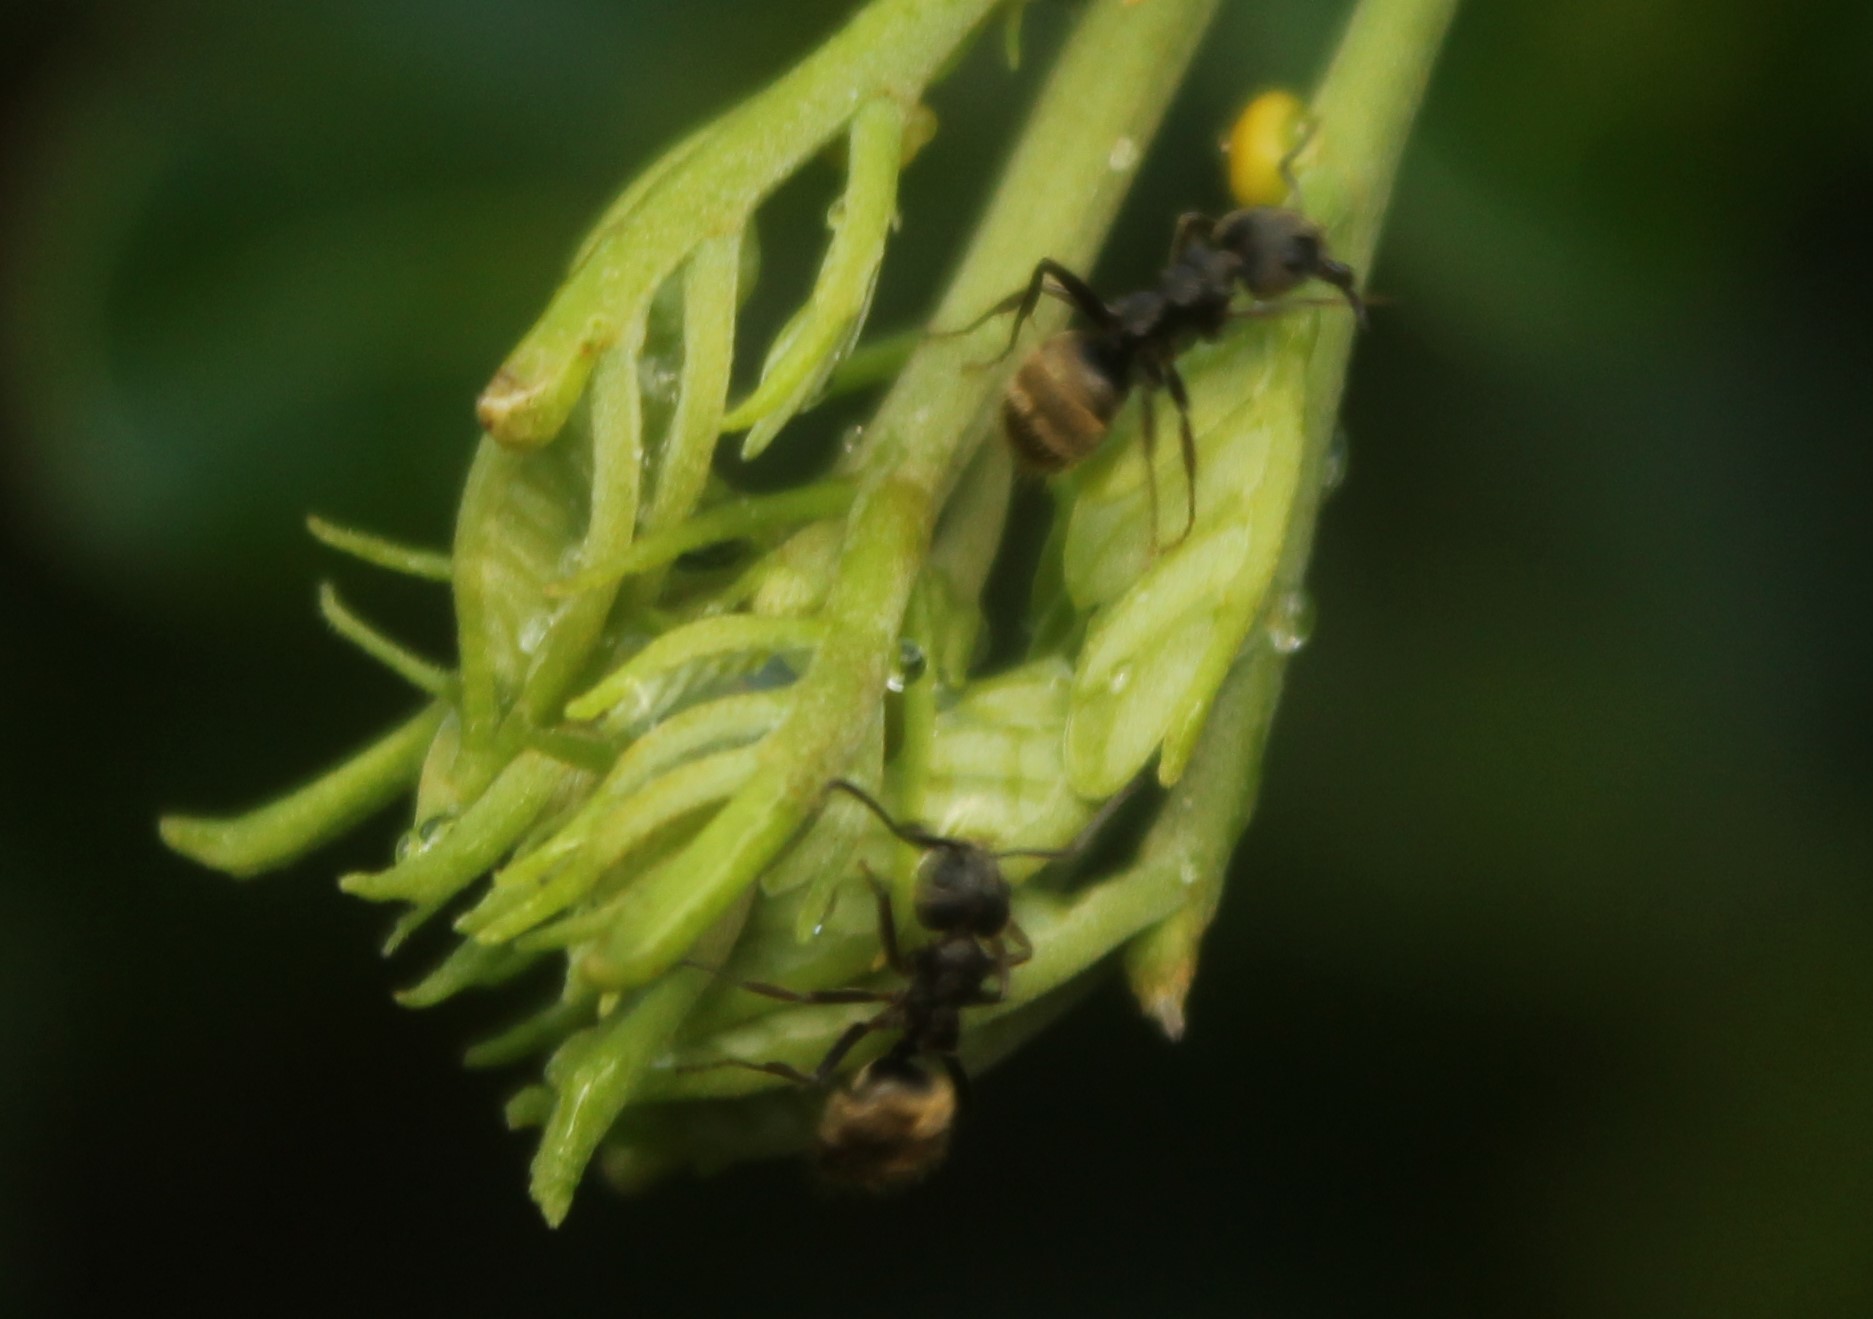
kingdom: Animalia
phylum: Arthropoda
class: Insecta
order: Hymenoptera
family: Formicidae
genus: Dolichoderus
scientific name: Dolichoderus bispinosus
